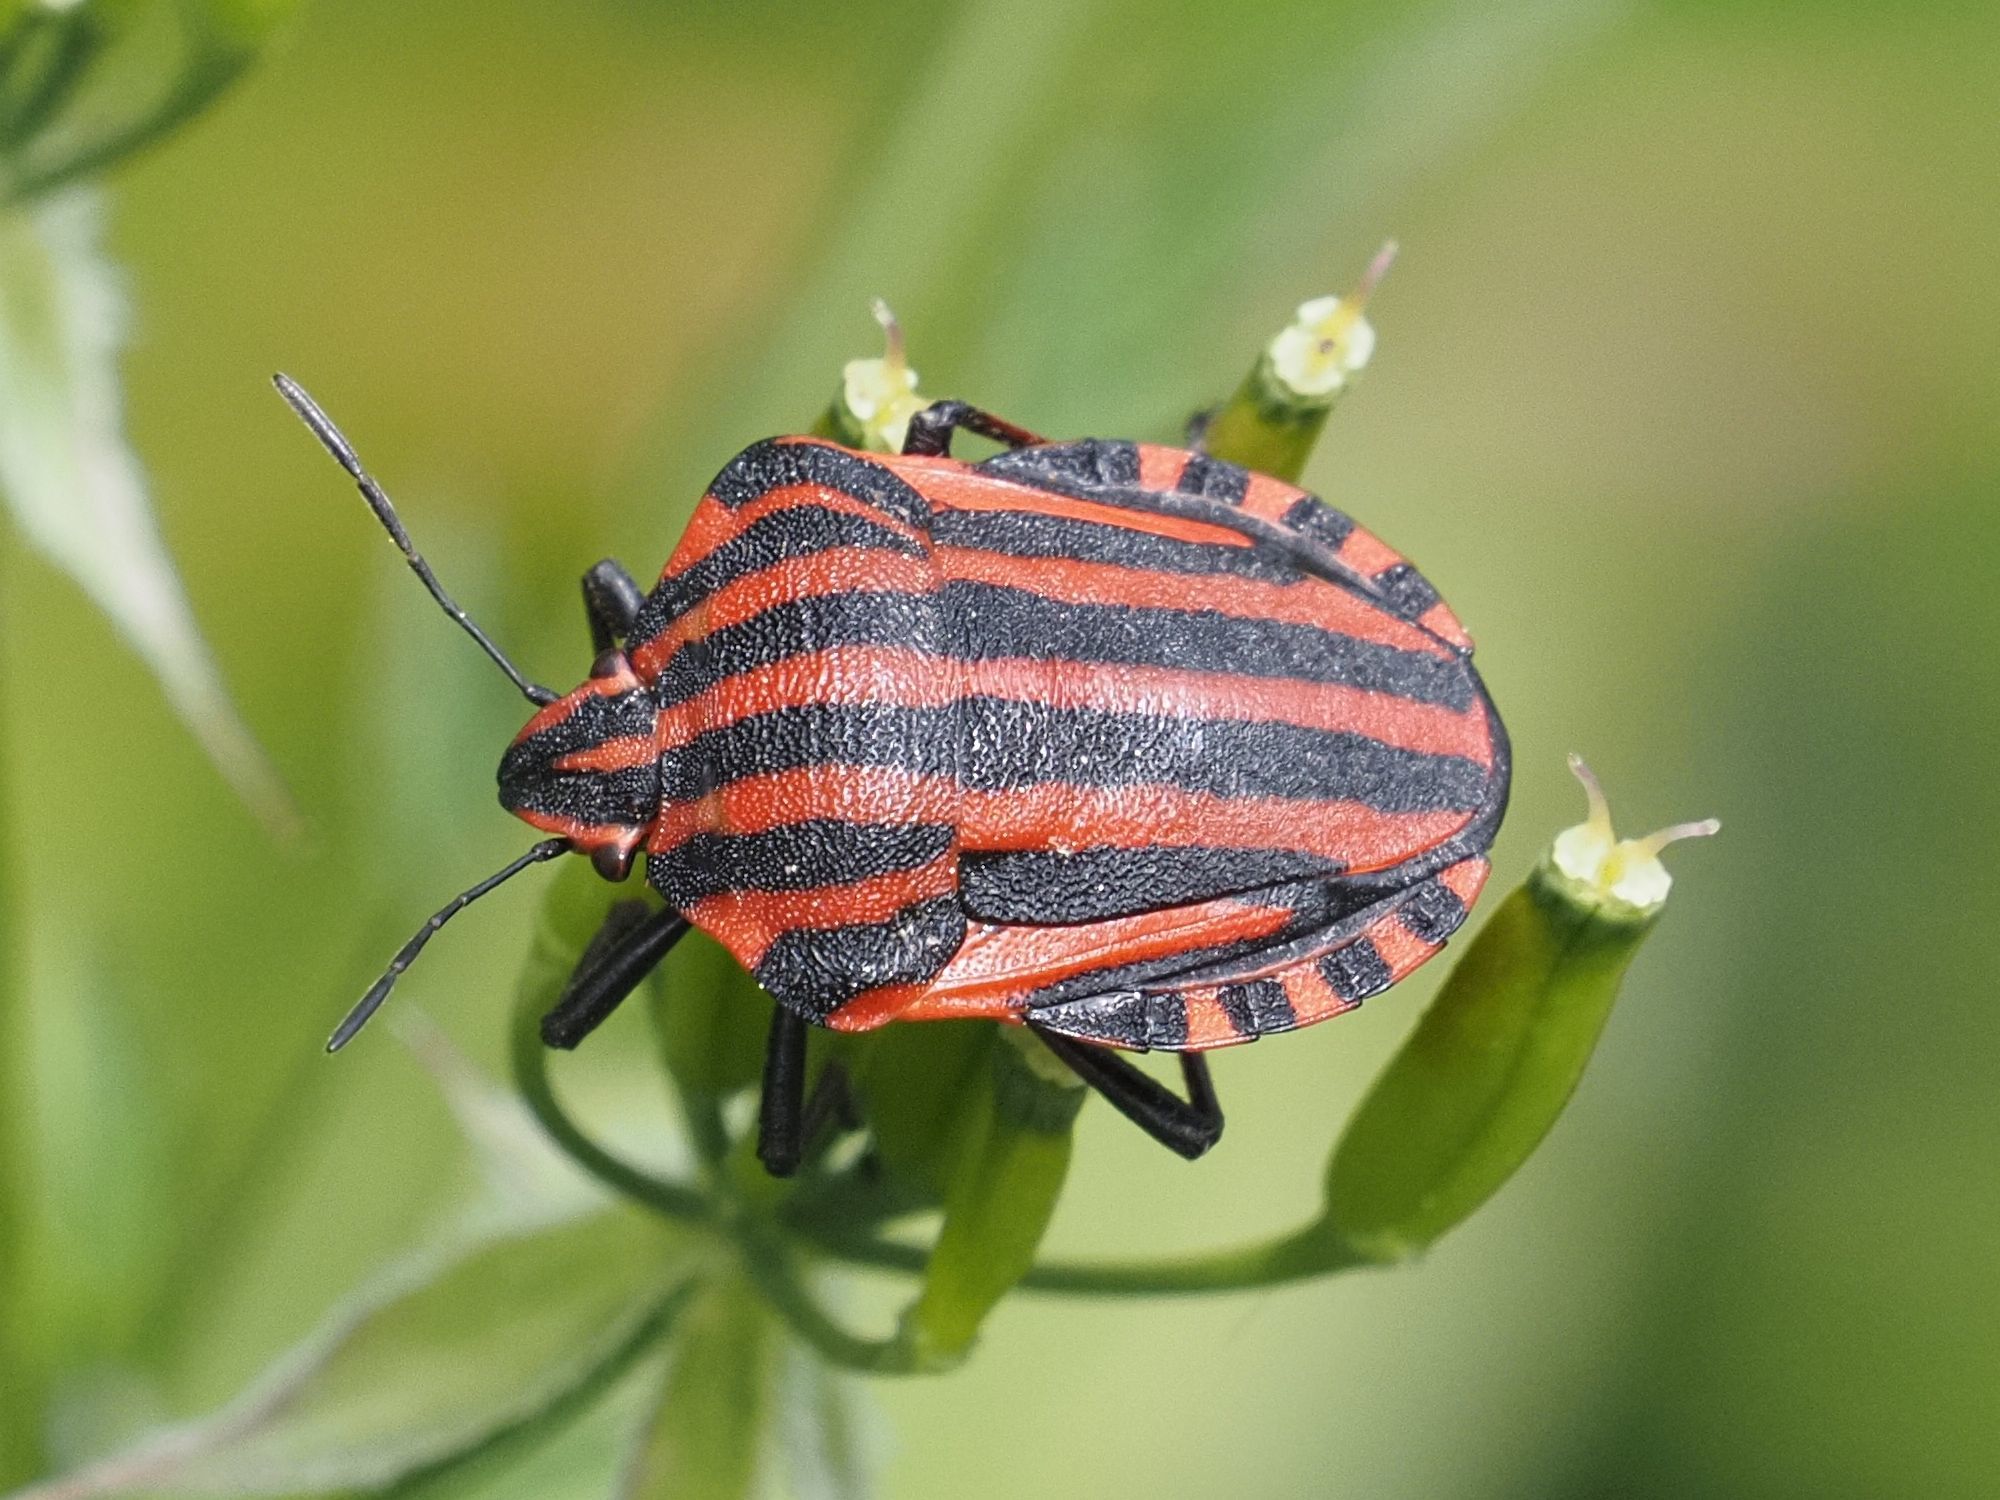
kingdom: Animalia
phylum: Arthropoda
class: Insecta
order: Hemiptera
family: Pentatomidae
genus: Graphosoma
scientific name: Graphosoma italicum
